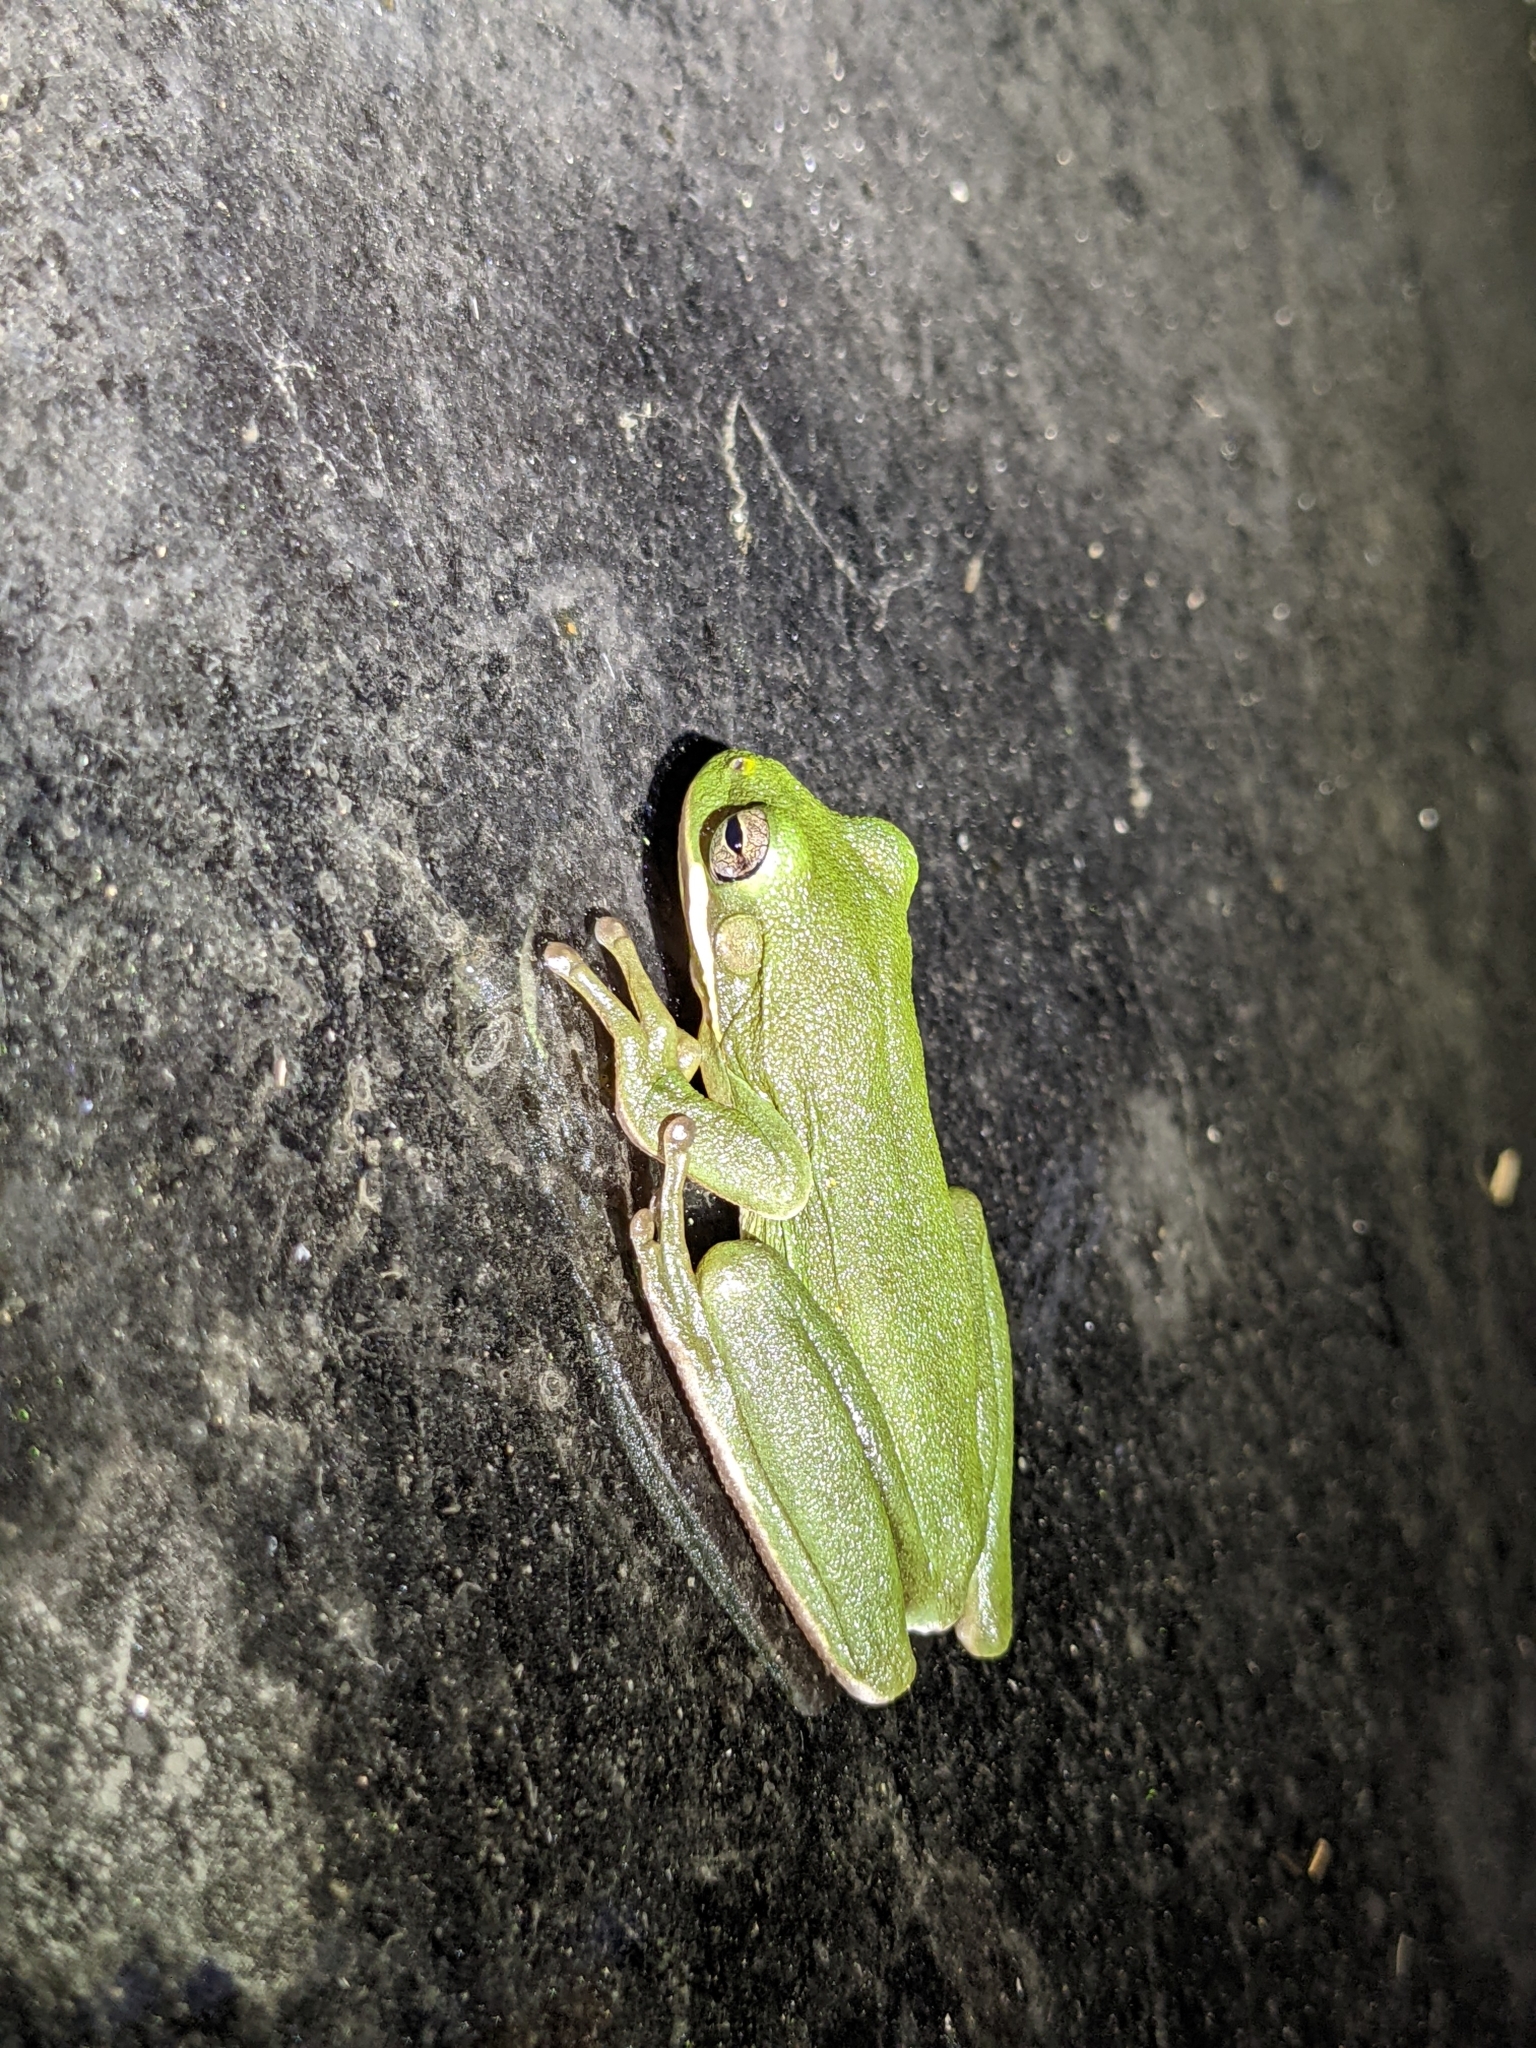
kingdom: Animalia
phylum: Chordata
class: Amphibia
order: Anura
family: Hylidae
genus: Dryophytes
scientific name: Dryophytes cinereus
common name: Green treefrog
